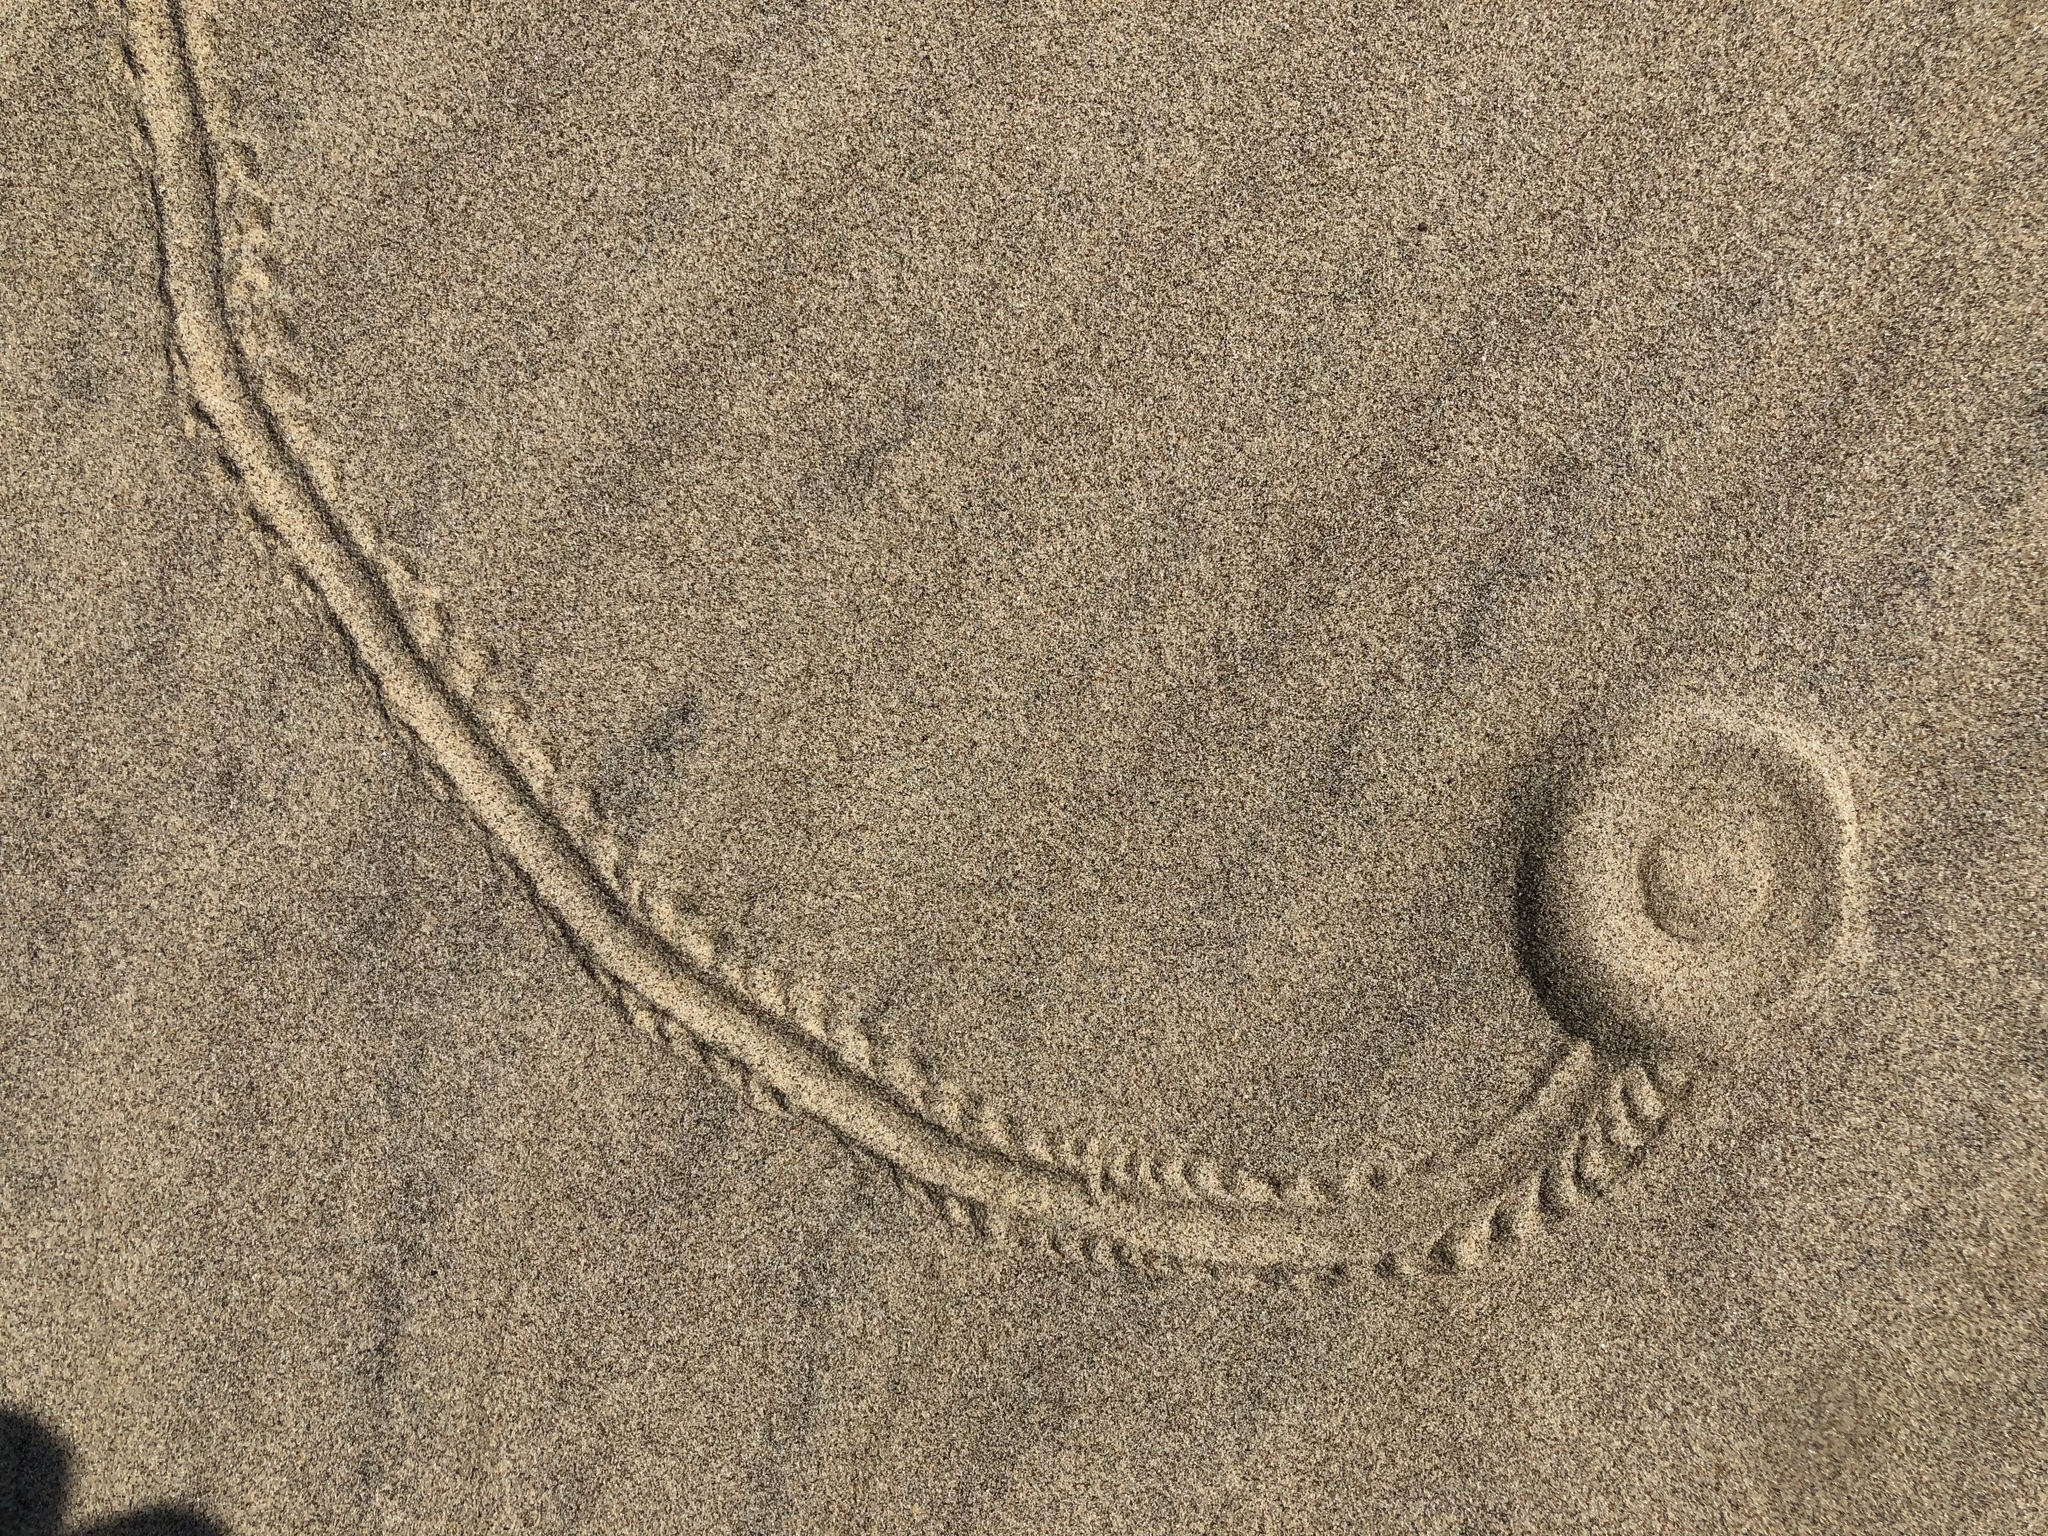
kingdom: Animalia
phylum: Arthropoda
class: Insecta
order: Coleoptera
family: Scarabaeidae
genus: Pericoptus
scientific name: Pericoptus truncatus
